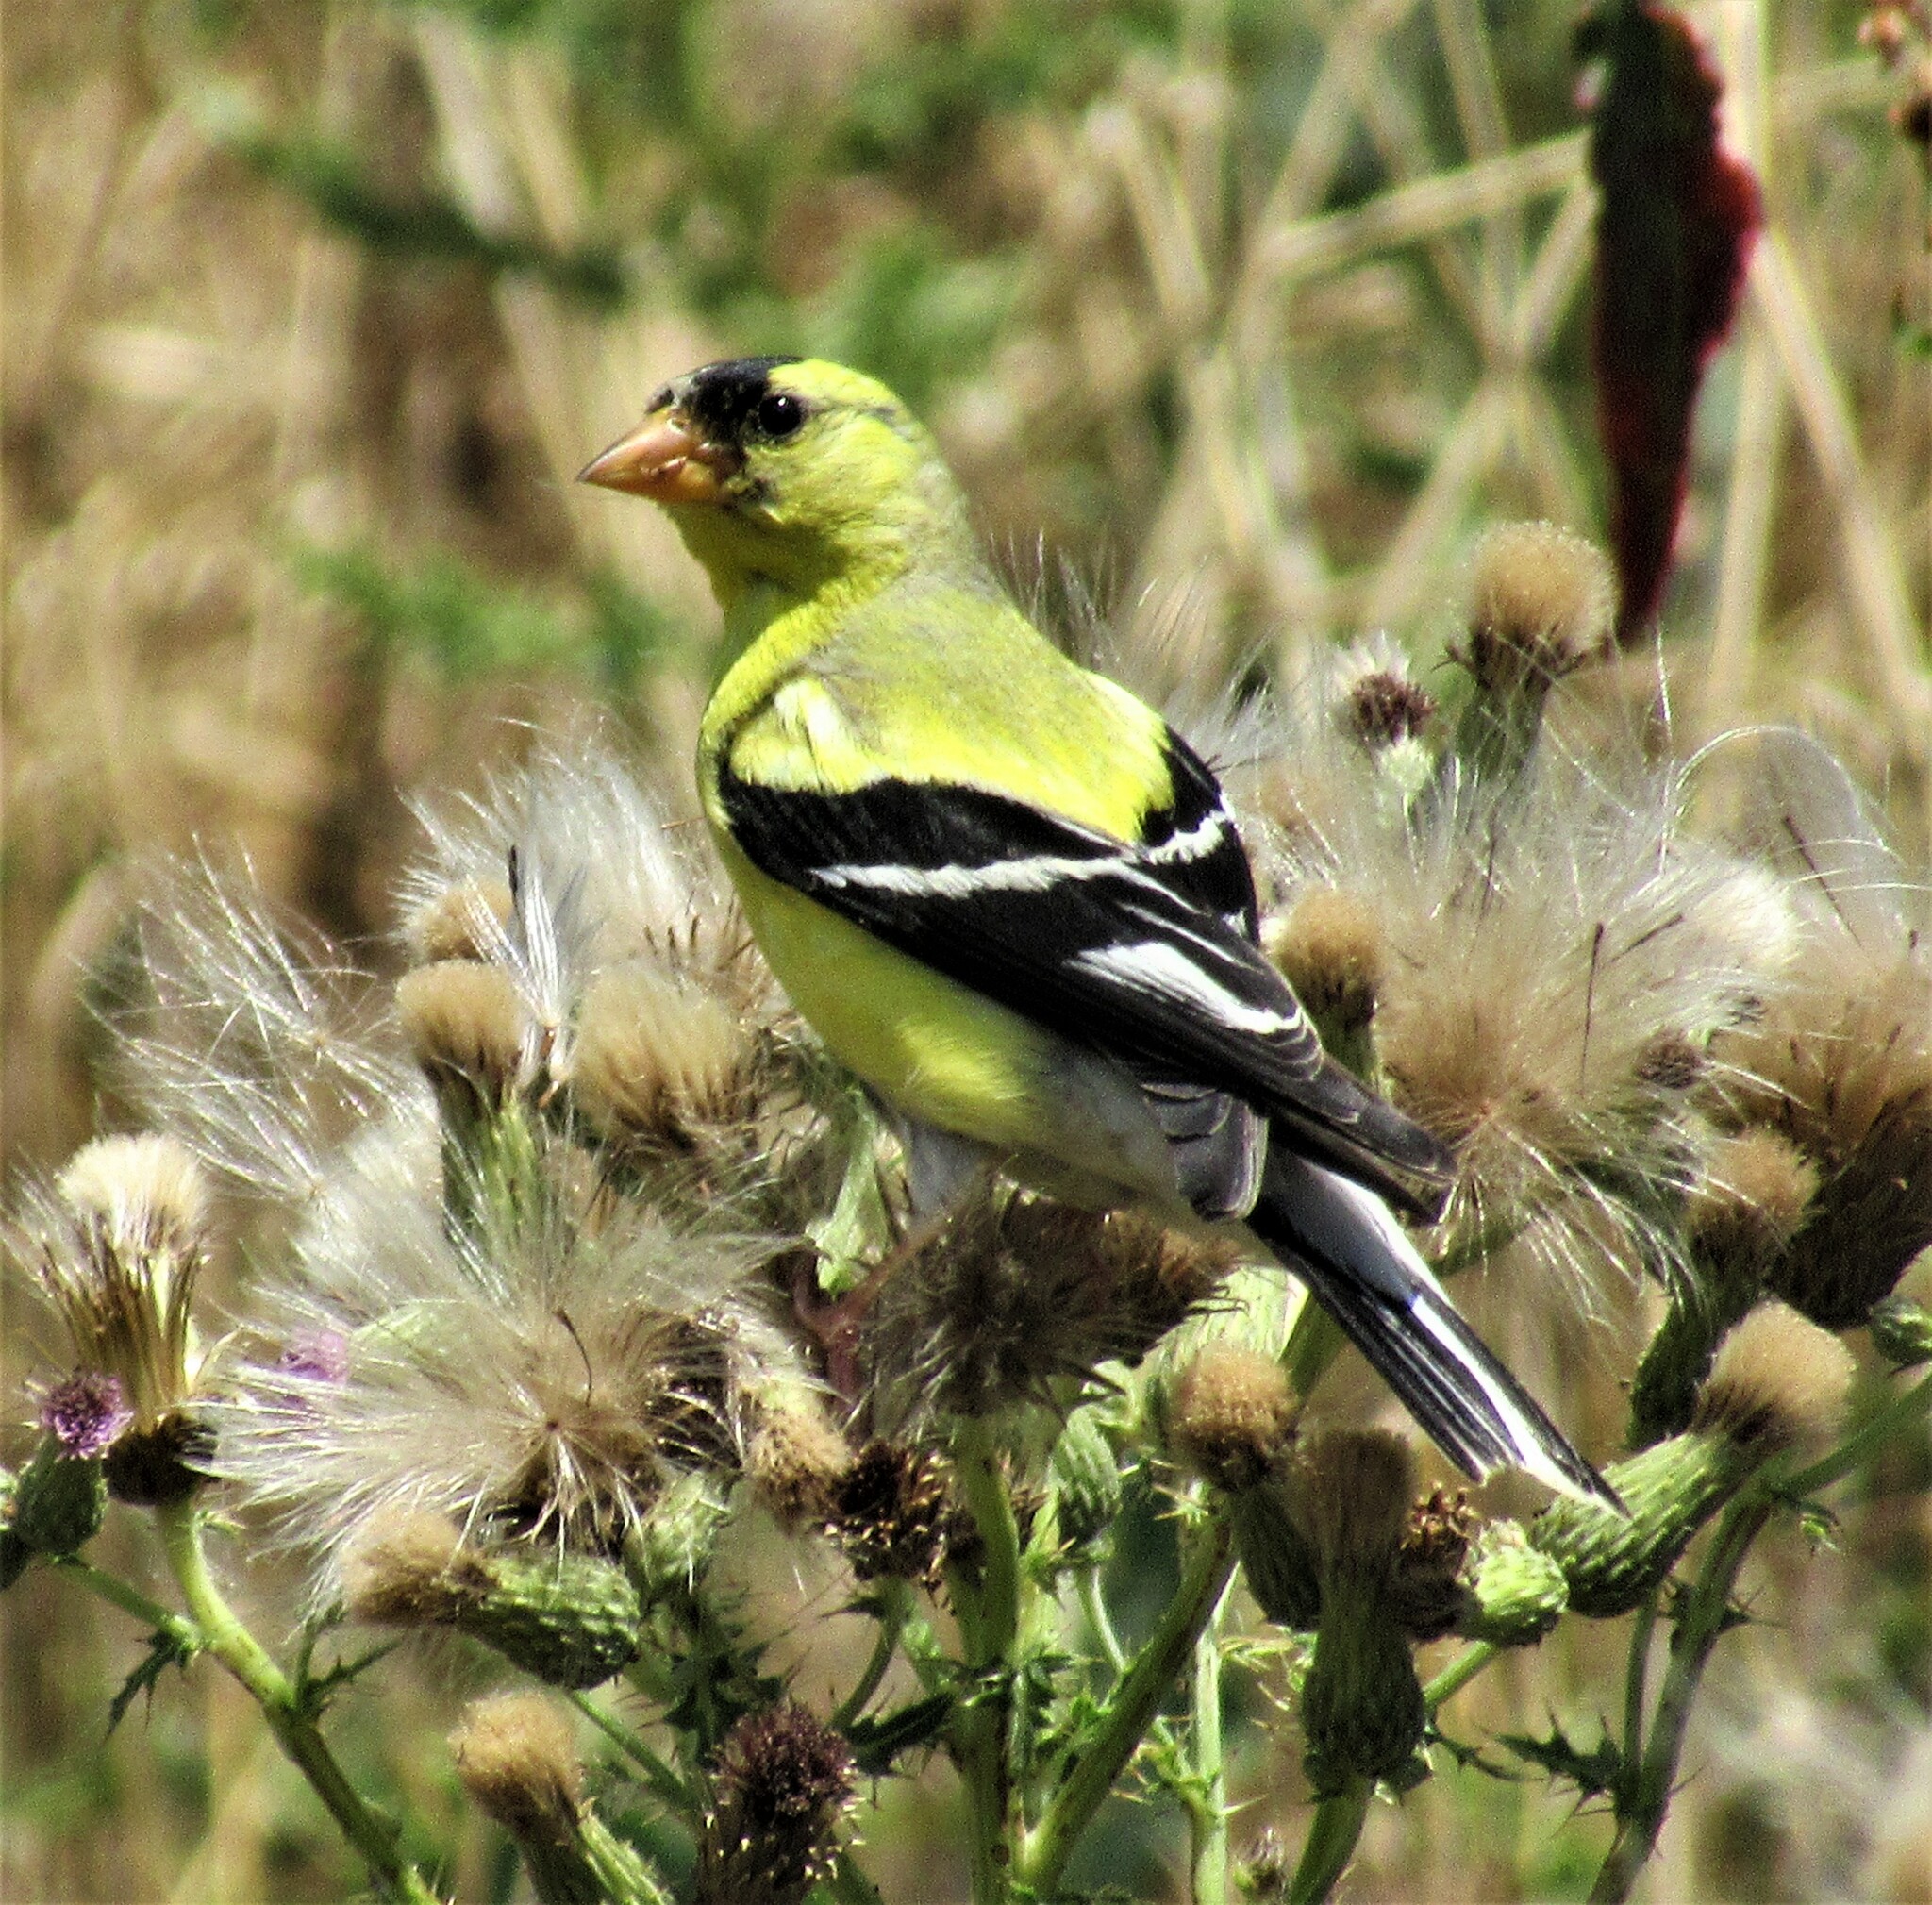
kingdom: Animalia
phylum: Chordata
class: Aves
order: Passeriformes
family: Fringillidae
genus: Spinus
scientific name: Spinus tristis
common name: American goldfinch
